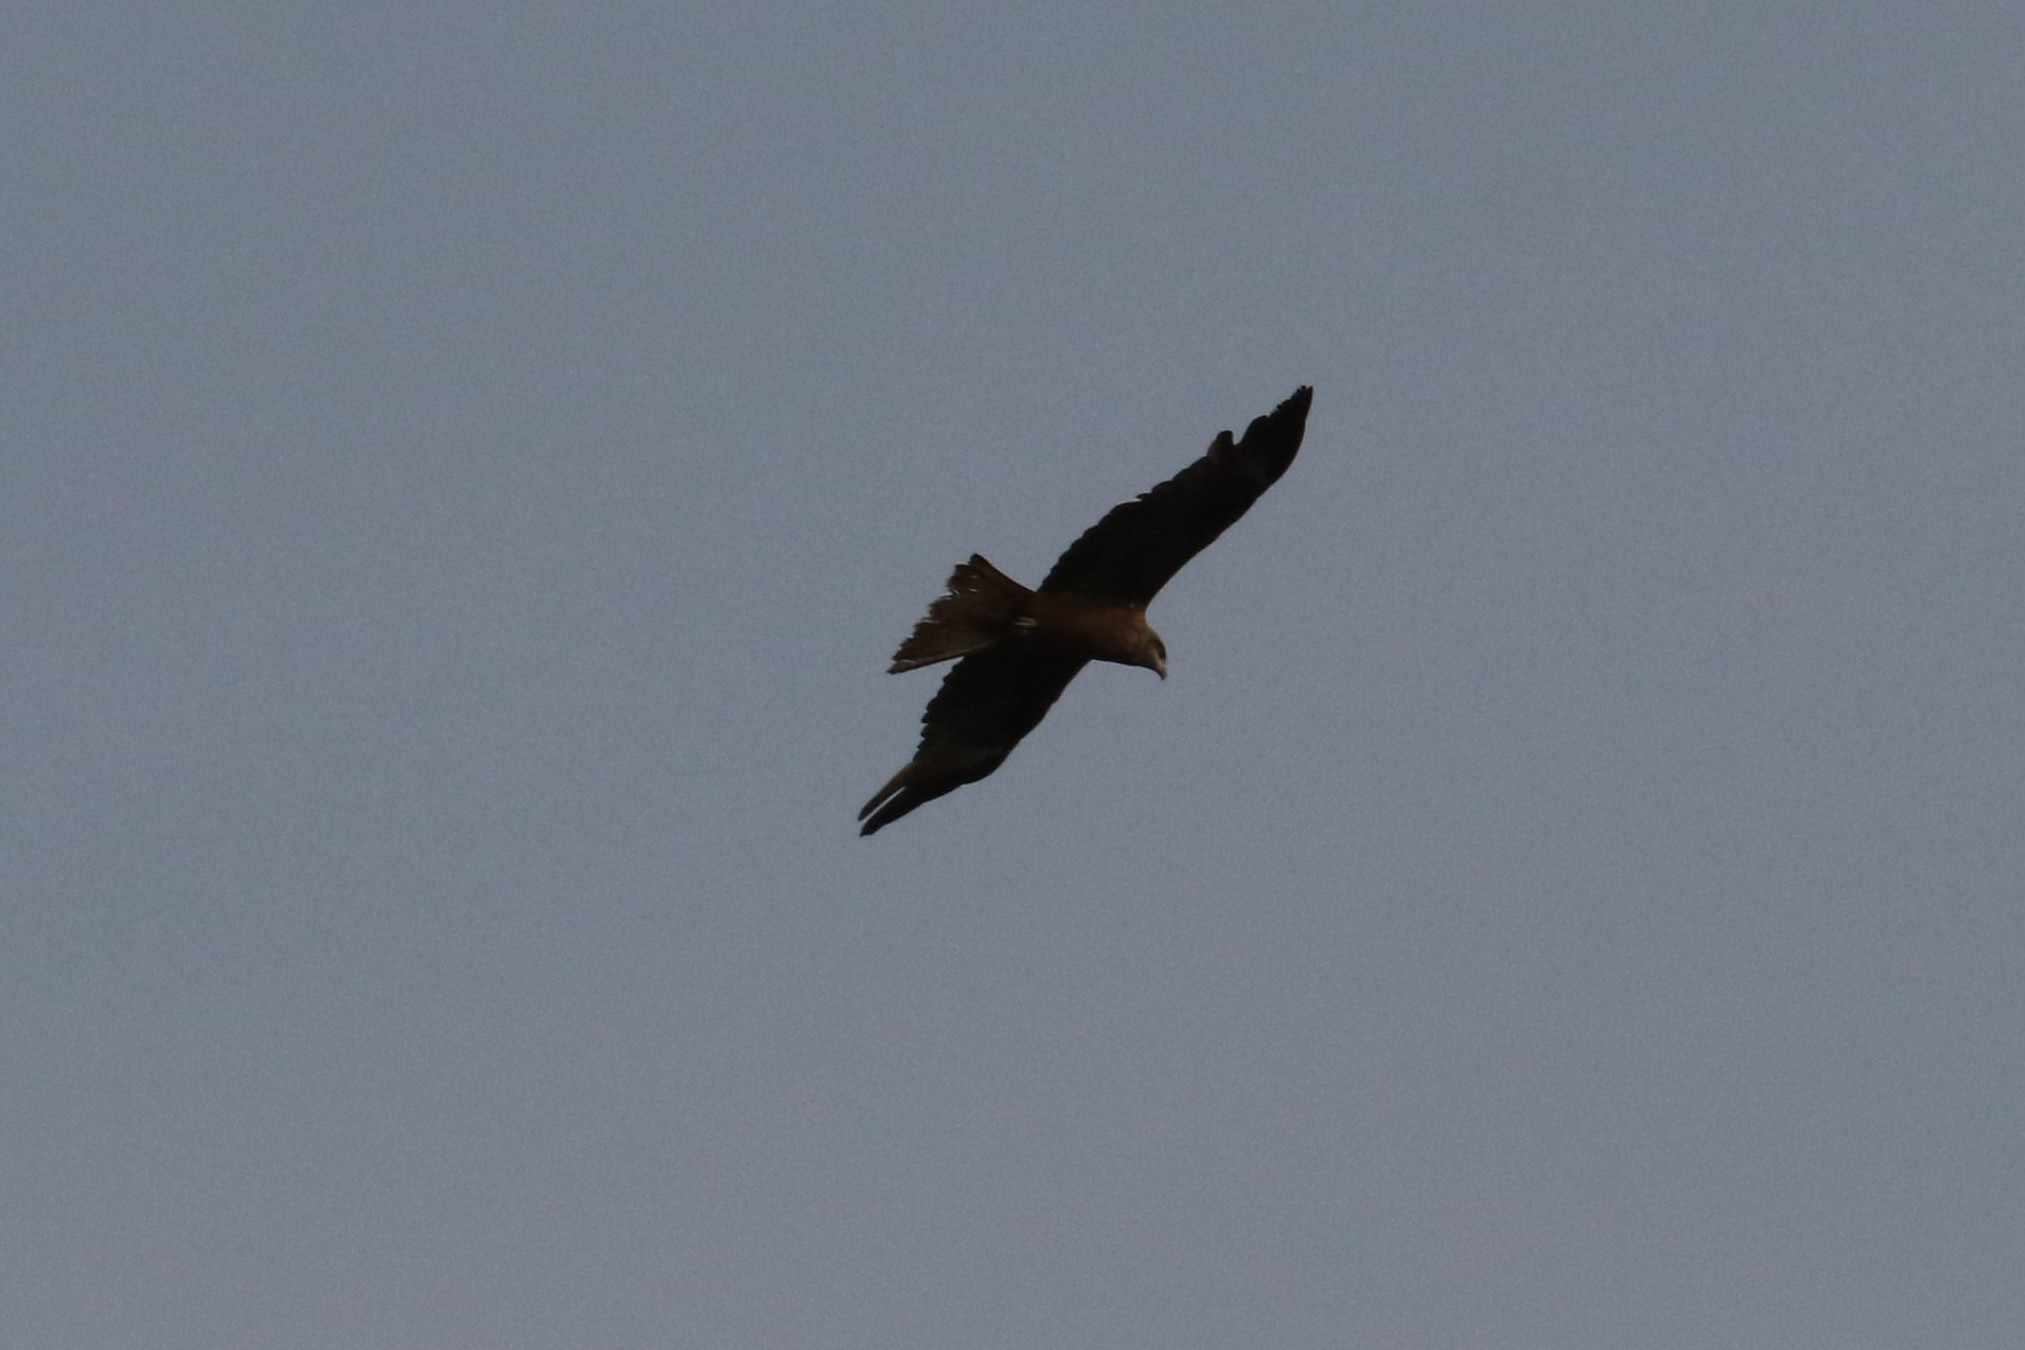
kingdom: Animalia
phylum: Chordata
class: Aves
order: Accipitriformes
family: Accipitridae
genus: Milvus
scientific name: Milvus migrans
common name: Black kite
